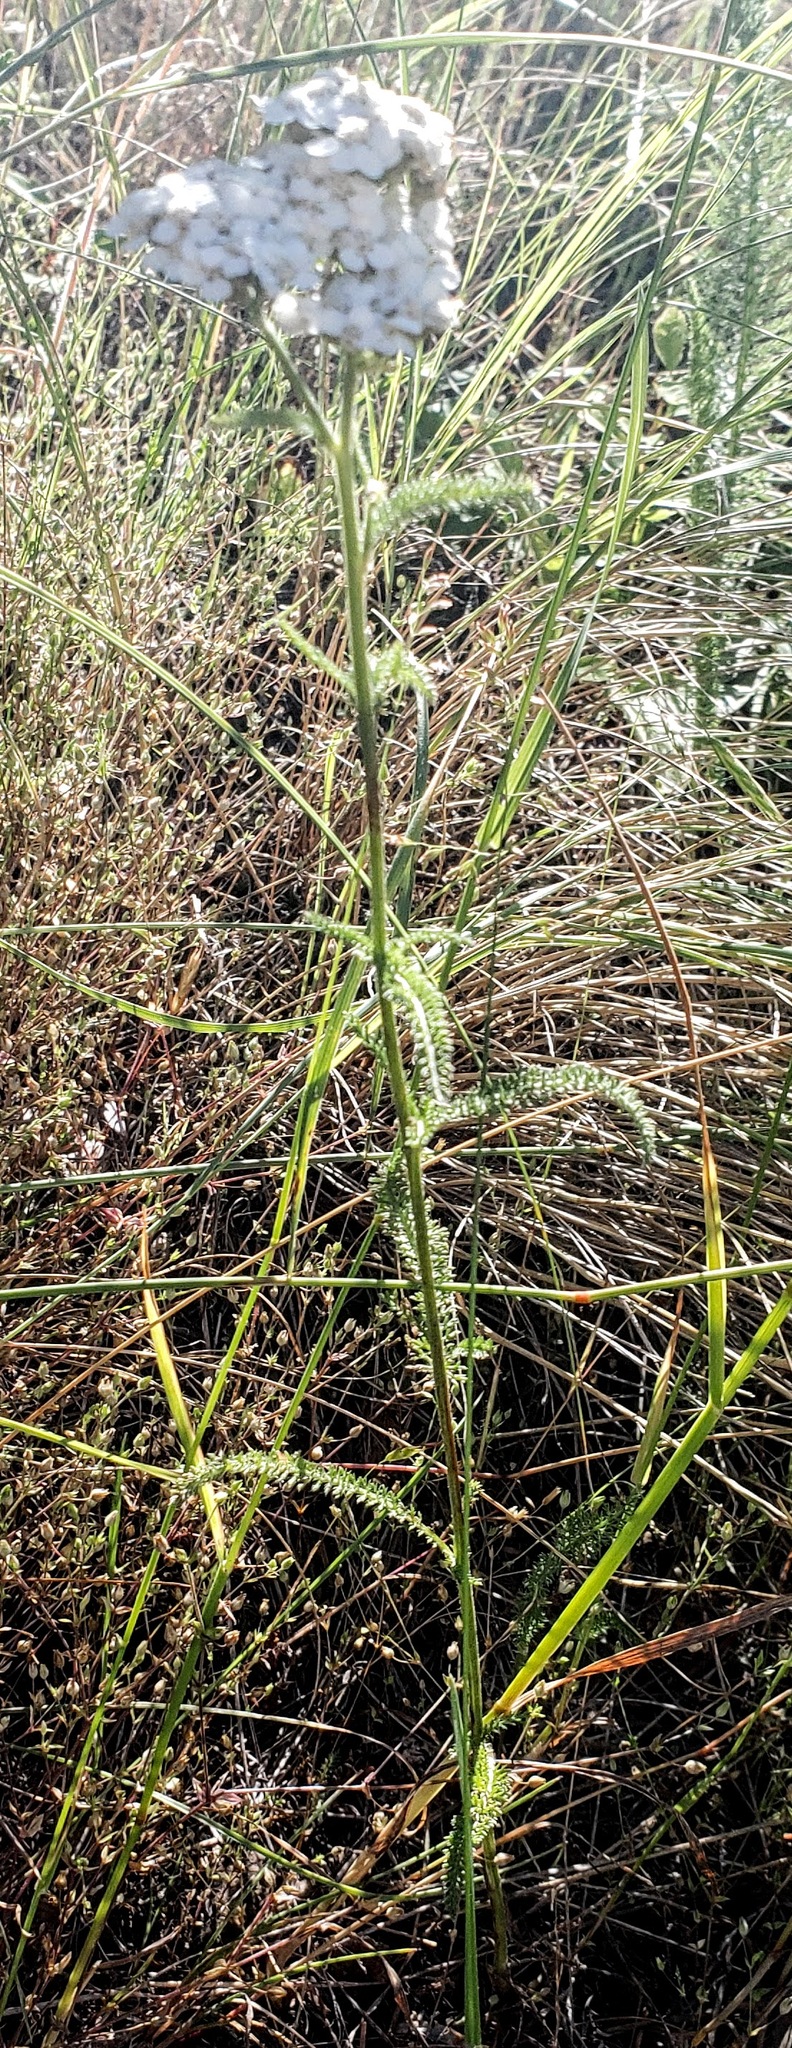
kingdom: Plantae
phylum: Tracheophyta
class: Magnoliopsida
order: Asterales
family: Asteraceae
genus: Achillea
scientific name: Achillea millefolium
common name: Yarrow
